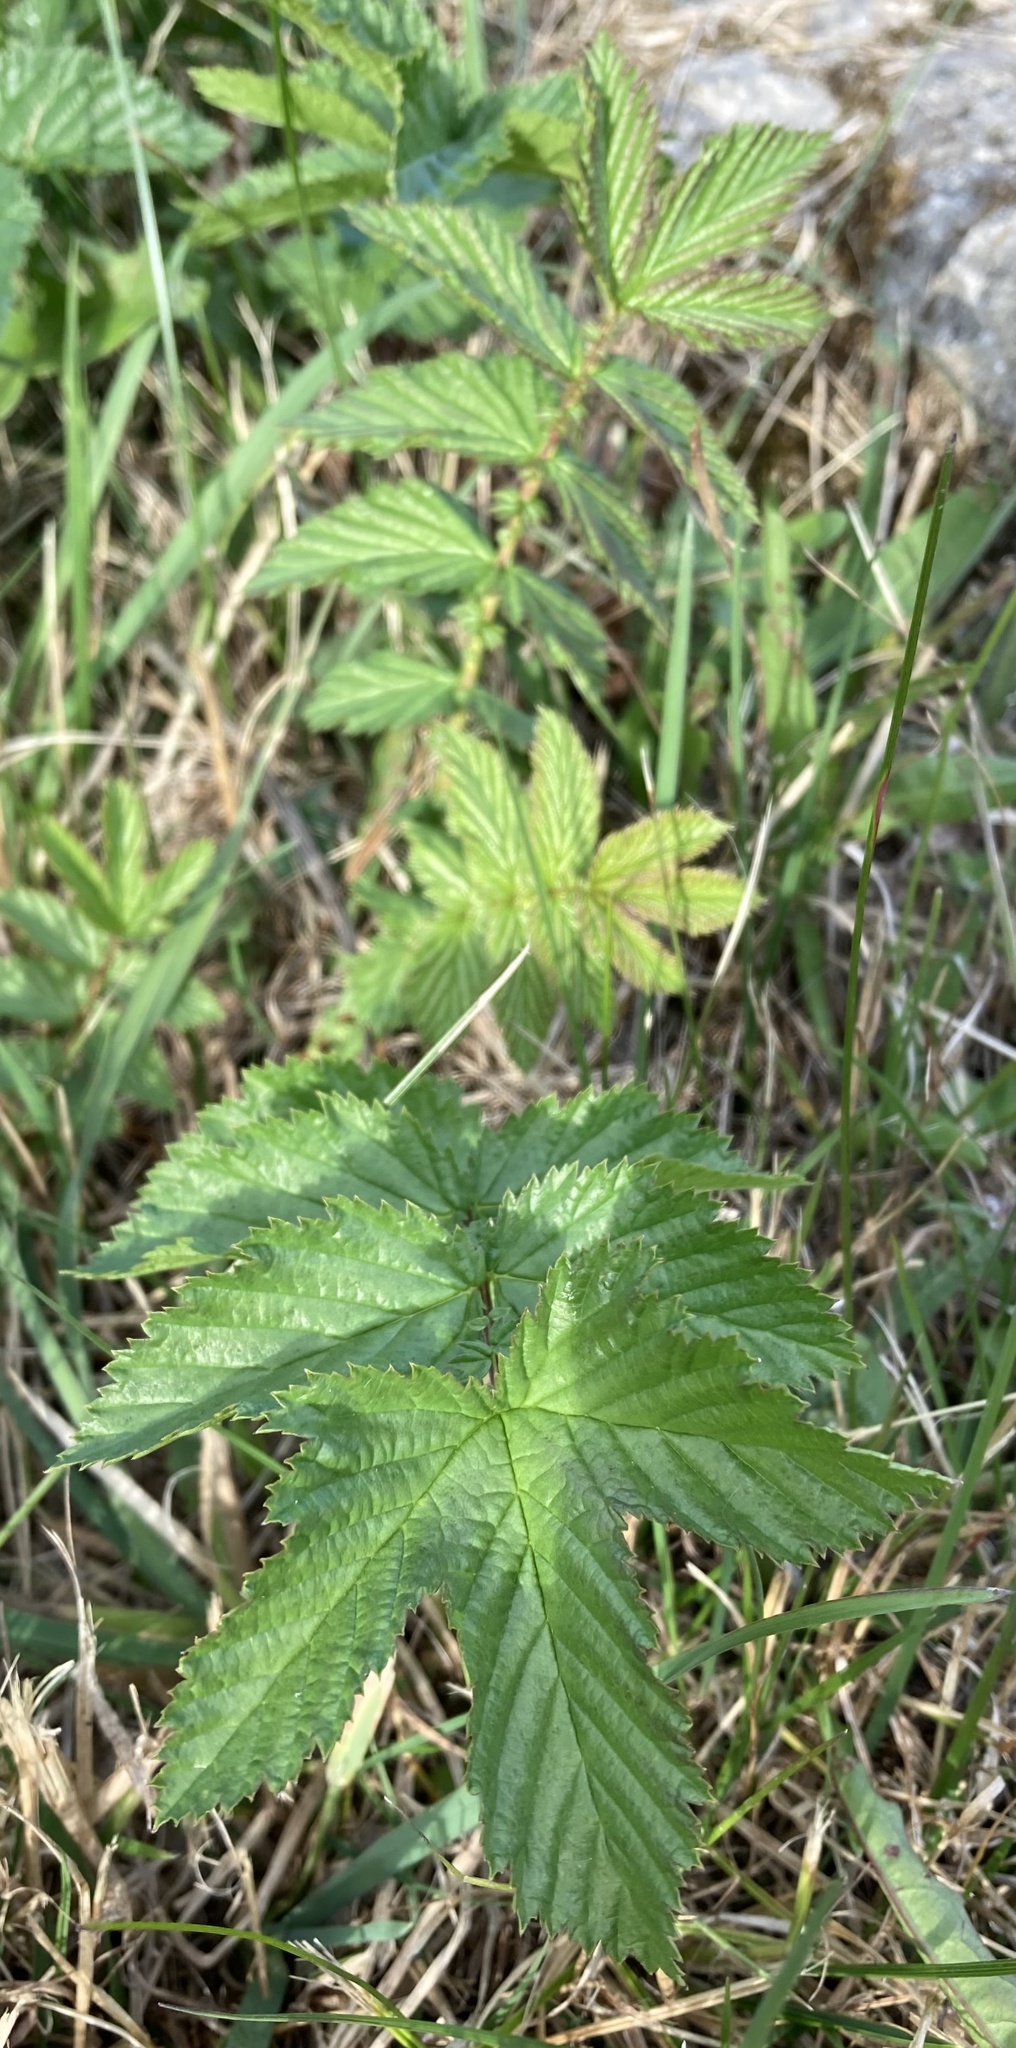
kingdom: Plantae
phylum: Tracheophyta
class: Magnoliopsida
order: Rosales
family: Rosaceae
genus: Filipendula
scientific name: Filipendula ulmaria
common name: Meadowsweet
